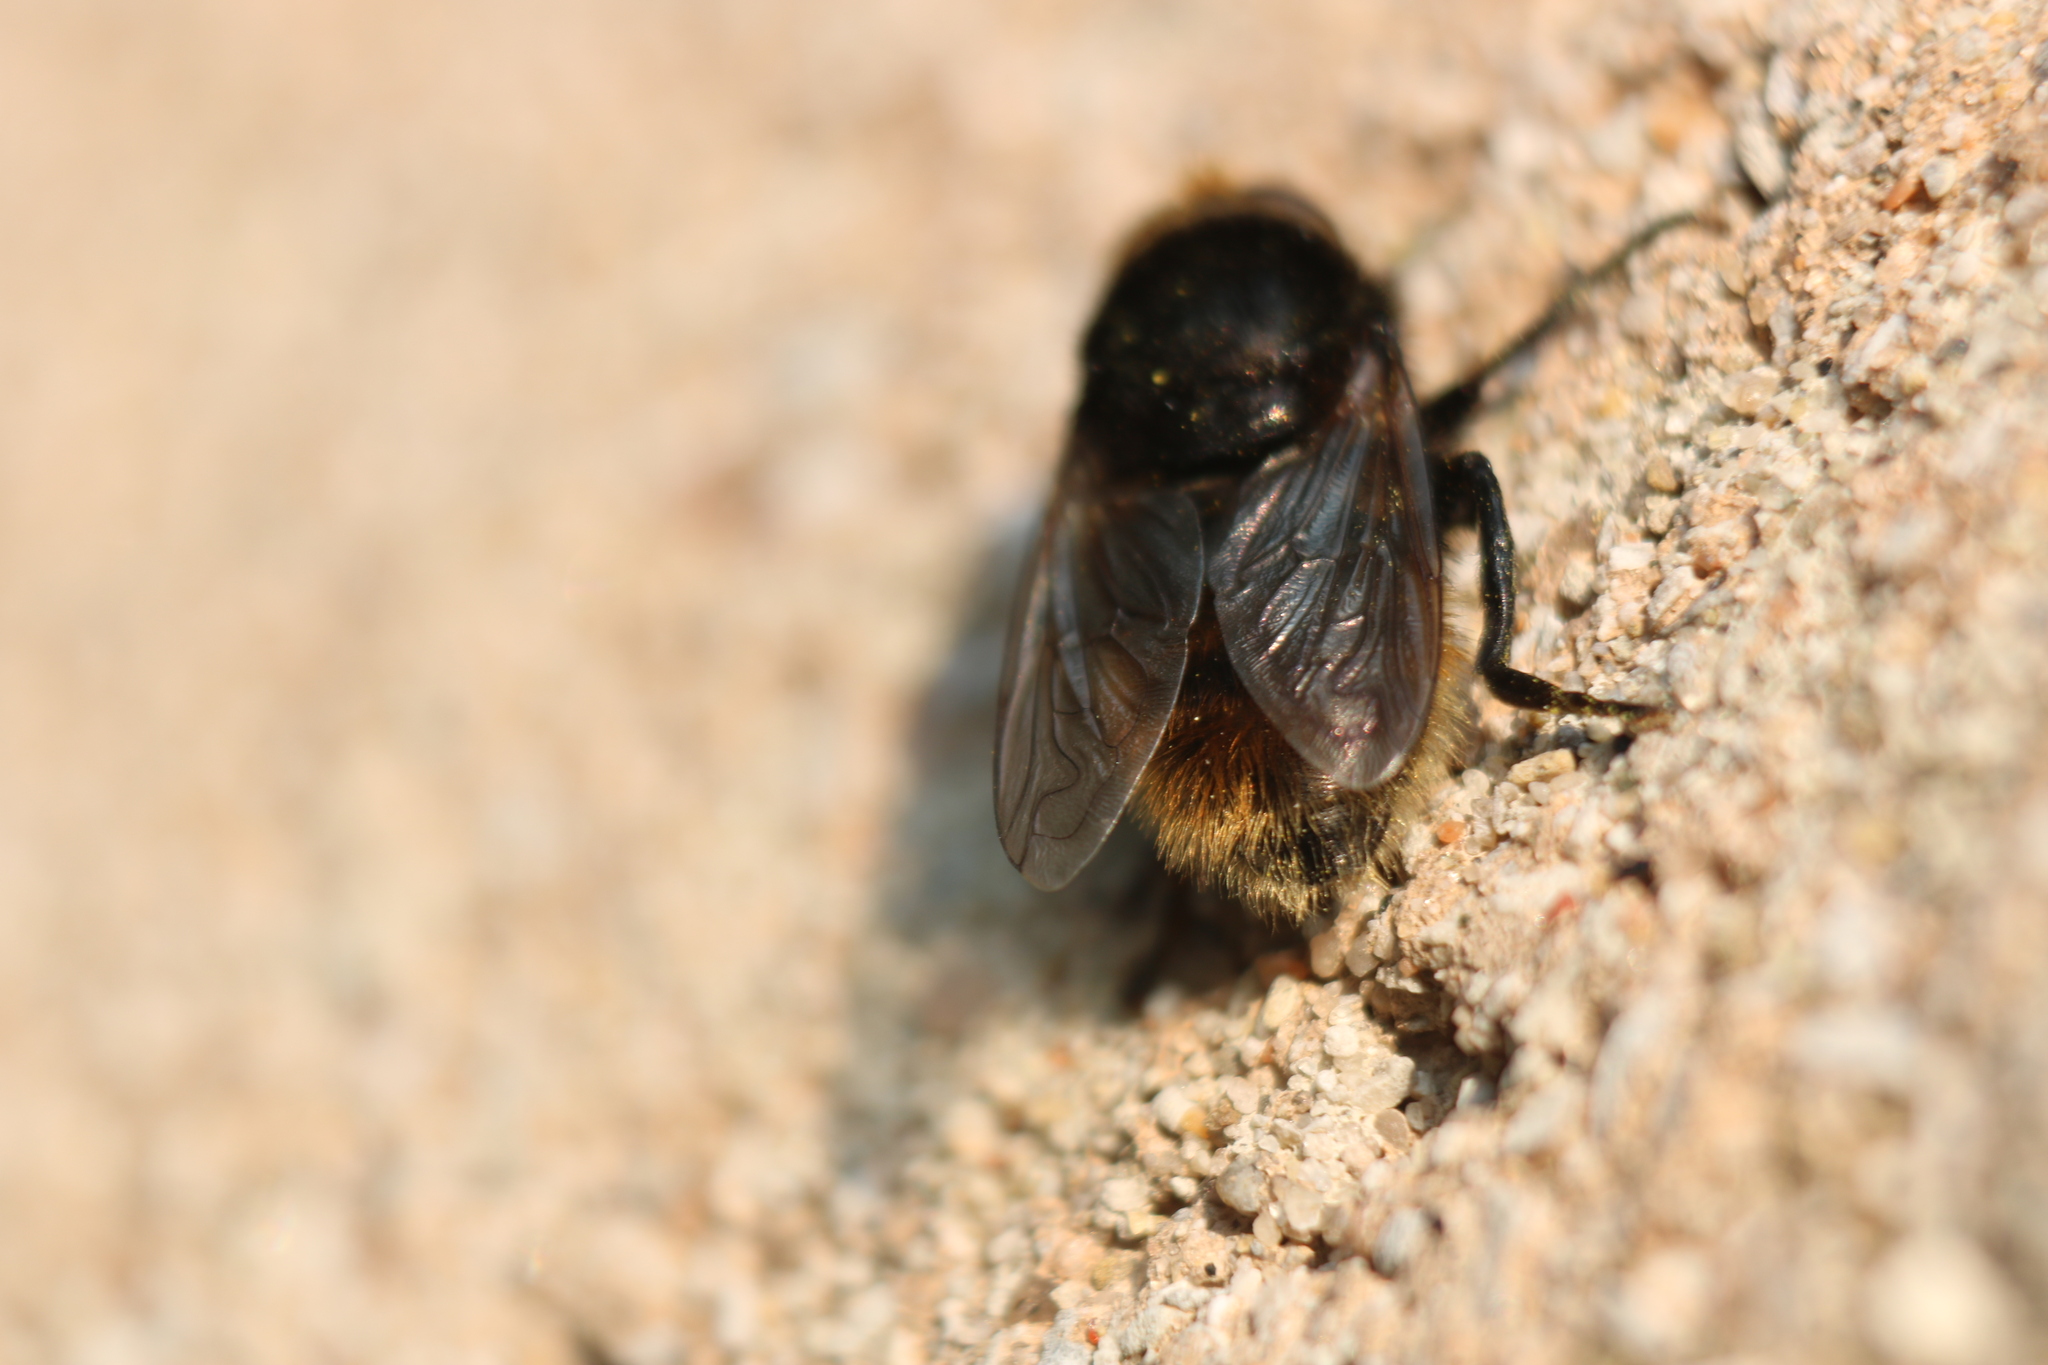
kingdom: Animalia
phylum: Arthropoda
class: Insecta
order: Diptera
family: Syrphidae
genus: Merodon
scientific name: Merodon equestris
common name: Greater bulb-fly
